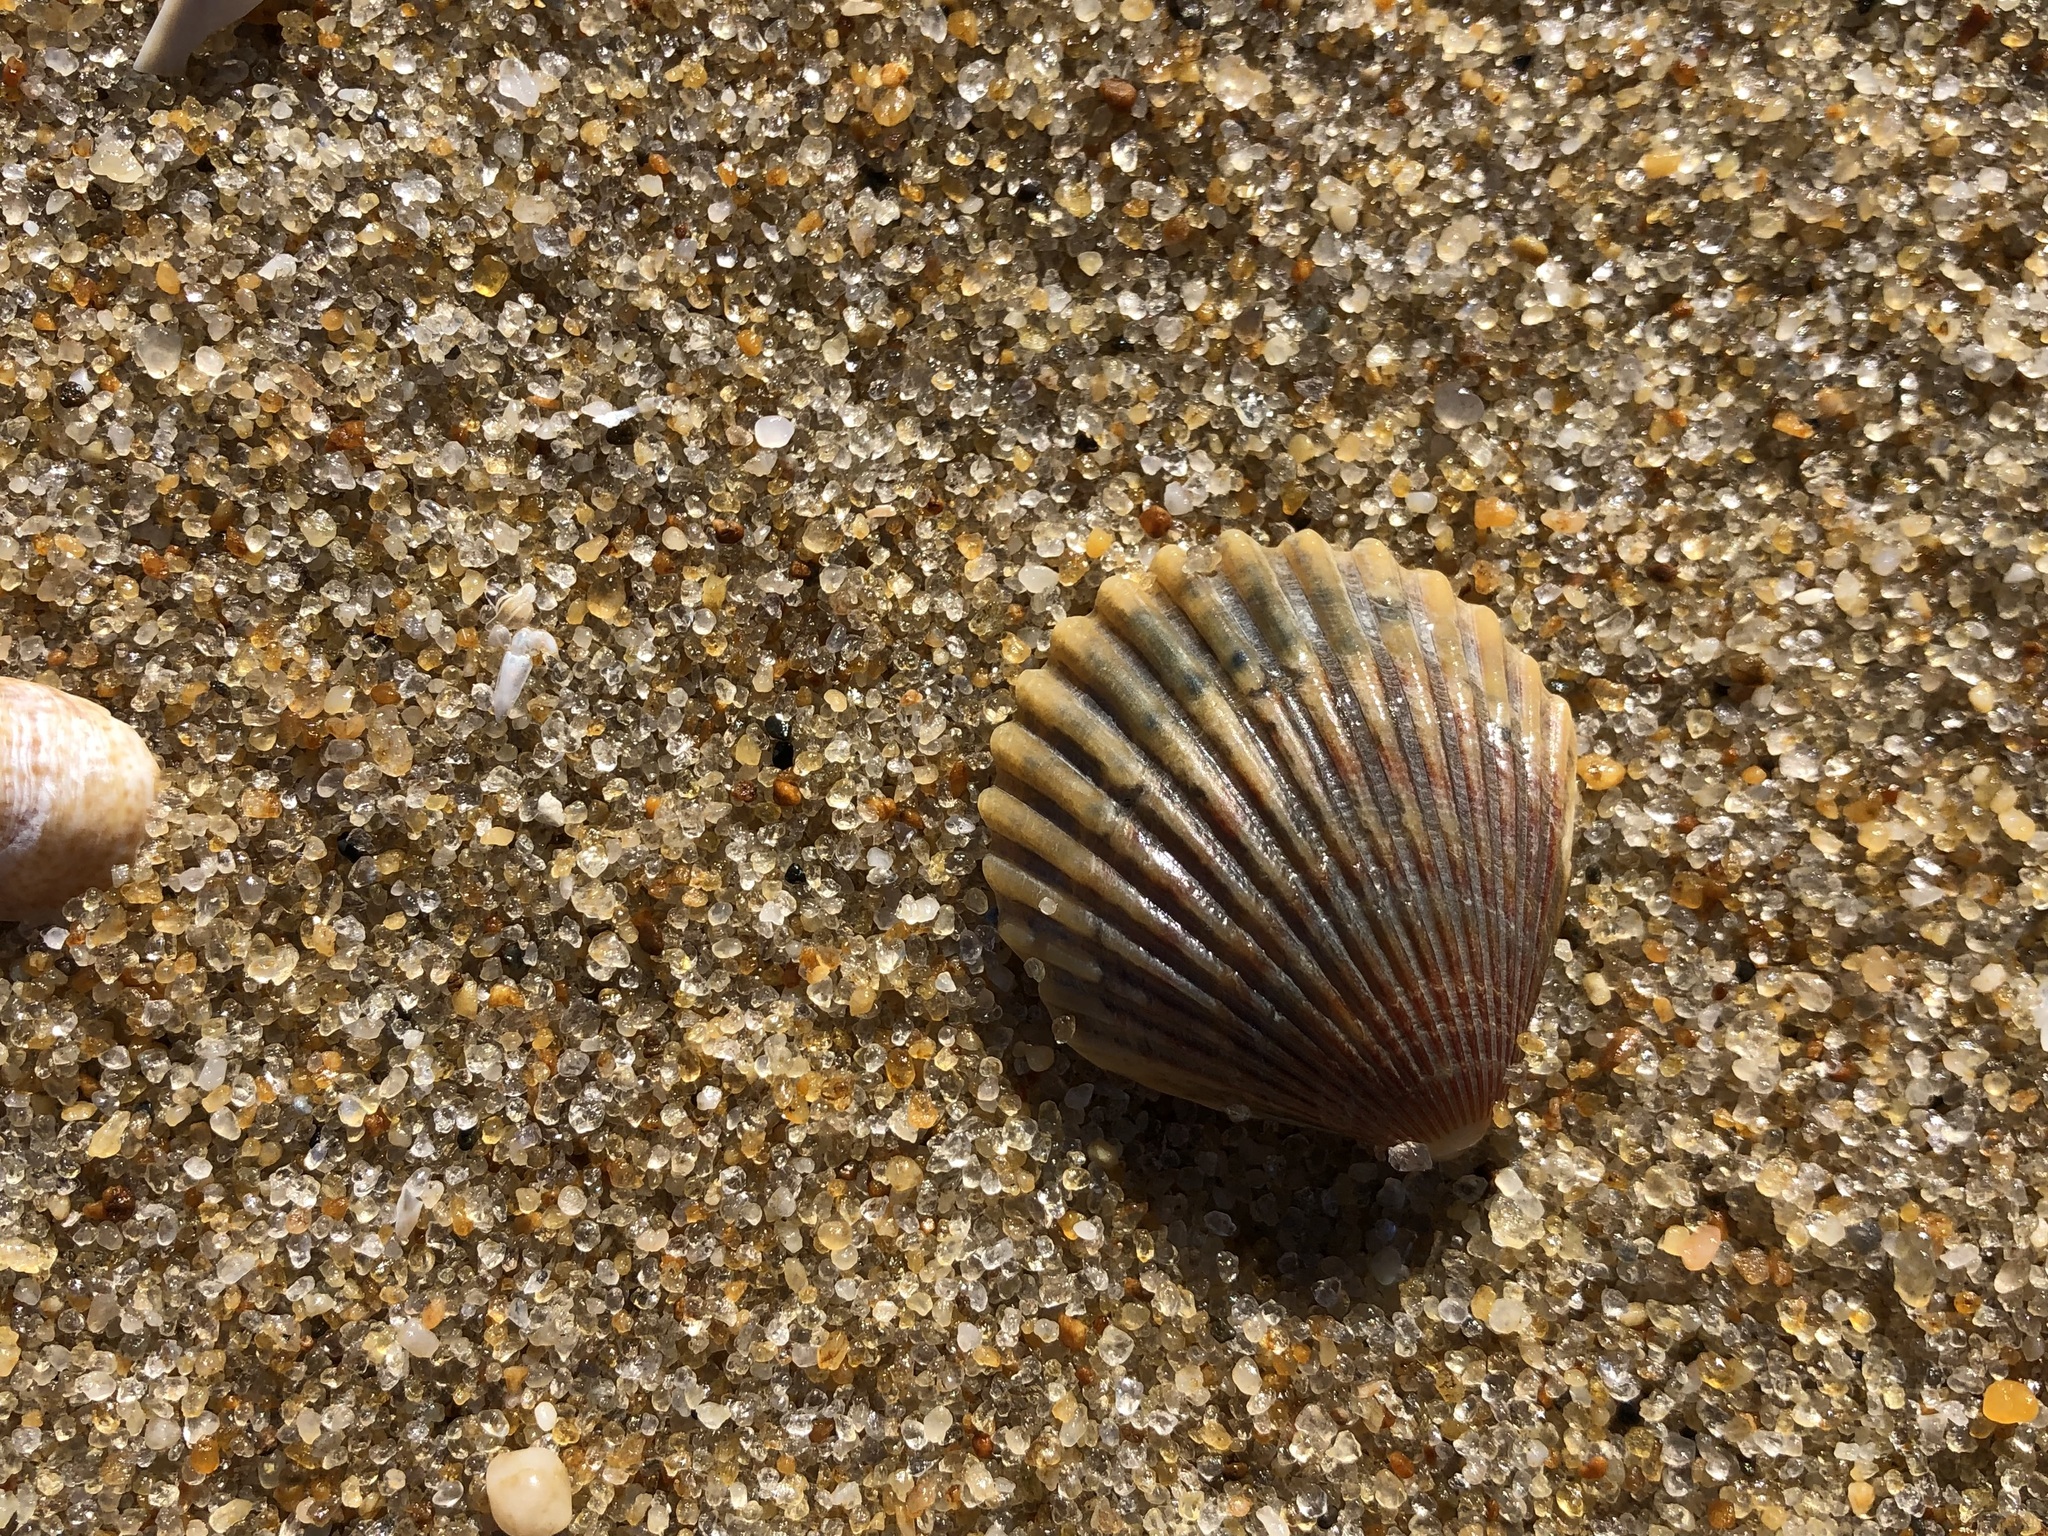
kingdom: Animalia
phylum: Mollusca
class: Bivalvia
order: Pectinida
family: Pectinidae
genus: Argopecten
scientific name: Argopecten irradians
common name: Atlantic bay scallop
